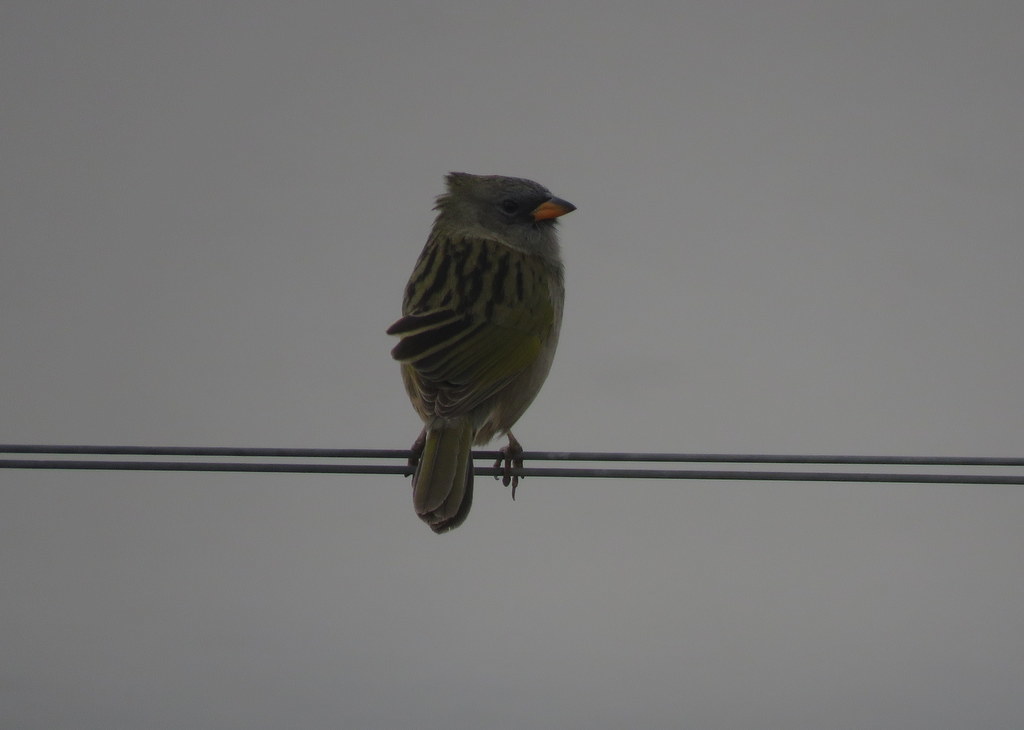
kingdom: Animalia
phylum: Chordata
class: Aves
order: Passeriformes
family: Thraupidae
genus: Embernagra
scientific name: Embernagra platensis
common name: Pampa finch
